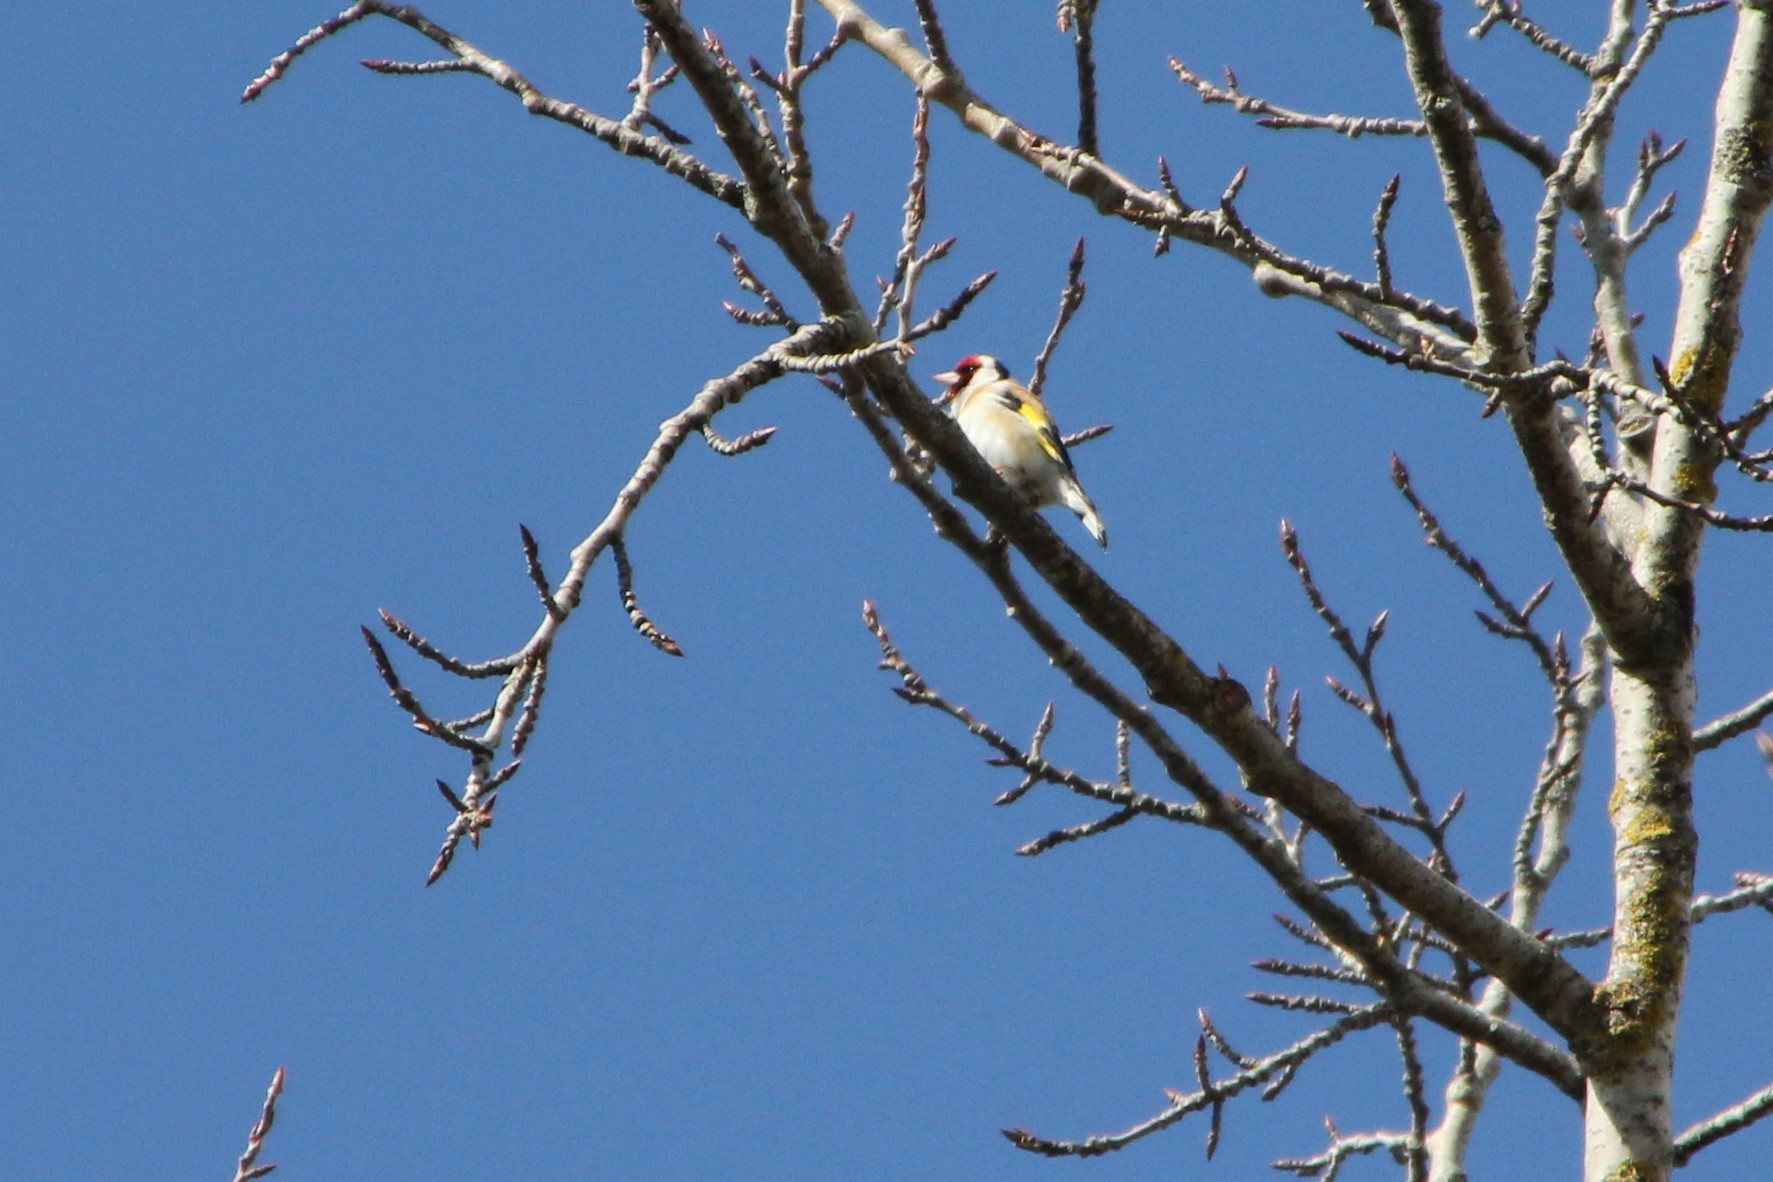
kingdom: Animalia
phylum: Chordata
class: Aves
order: Passeriformes
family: Fringillidae
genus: Carduelis
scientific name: Carduelis carduelis
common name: European goldfinch
